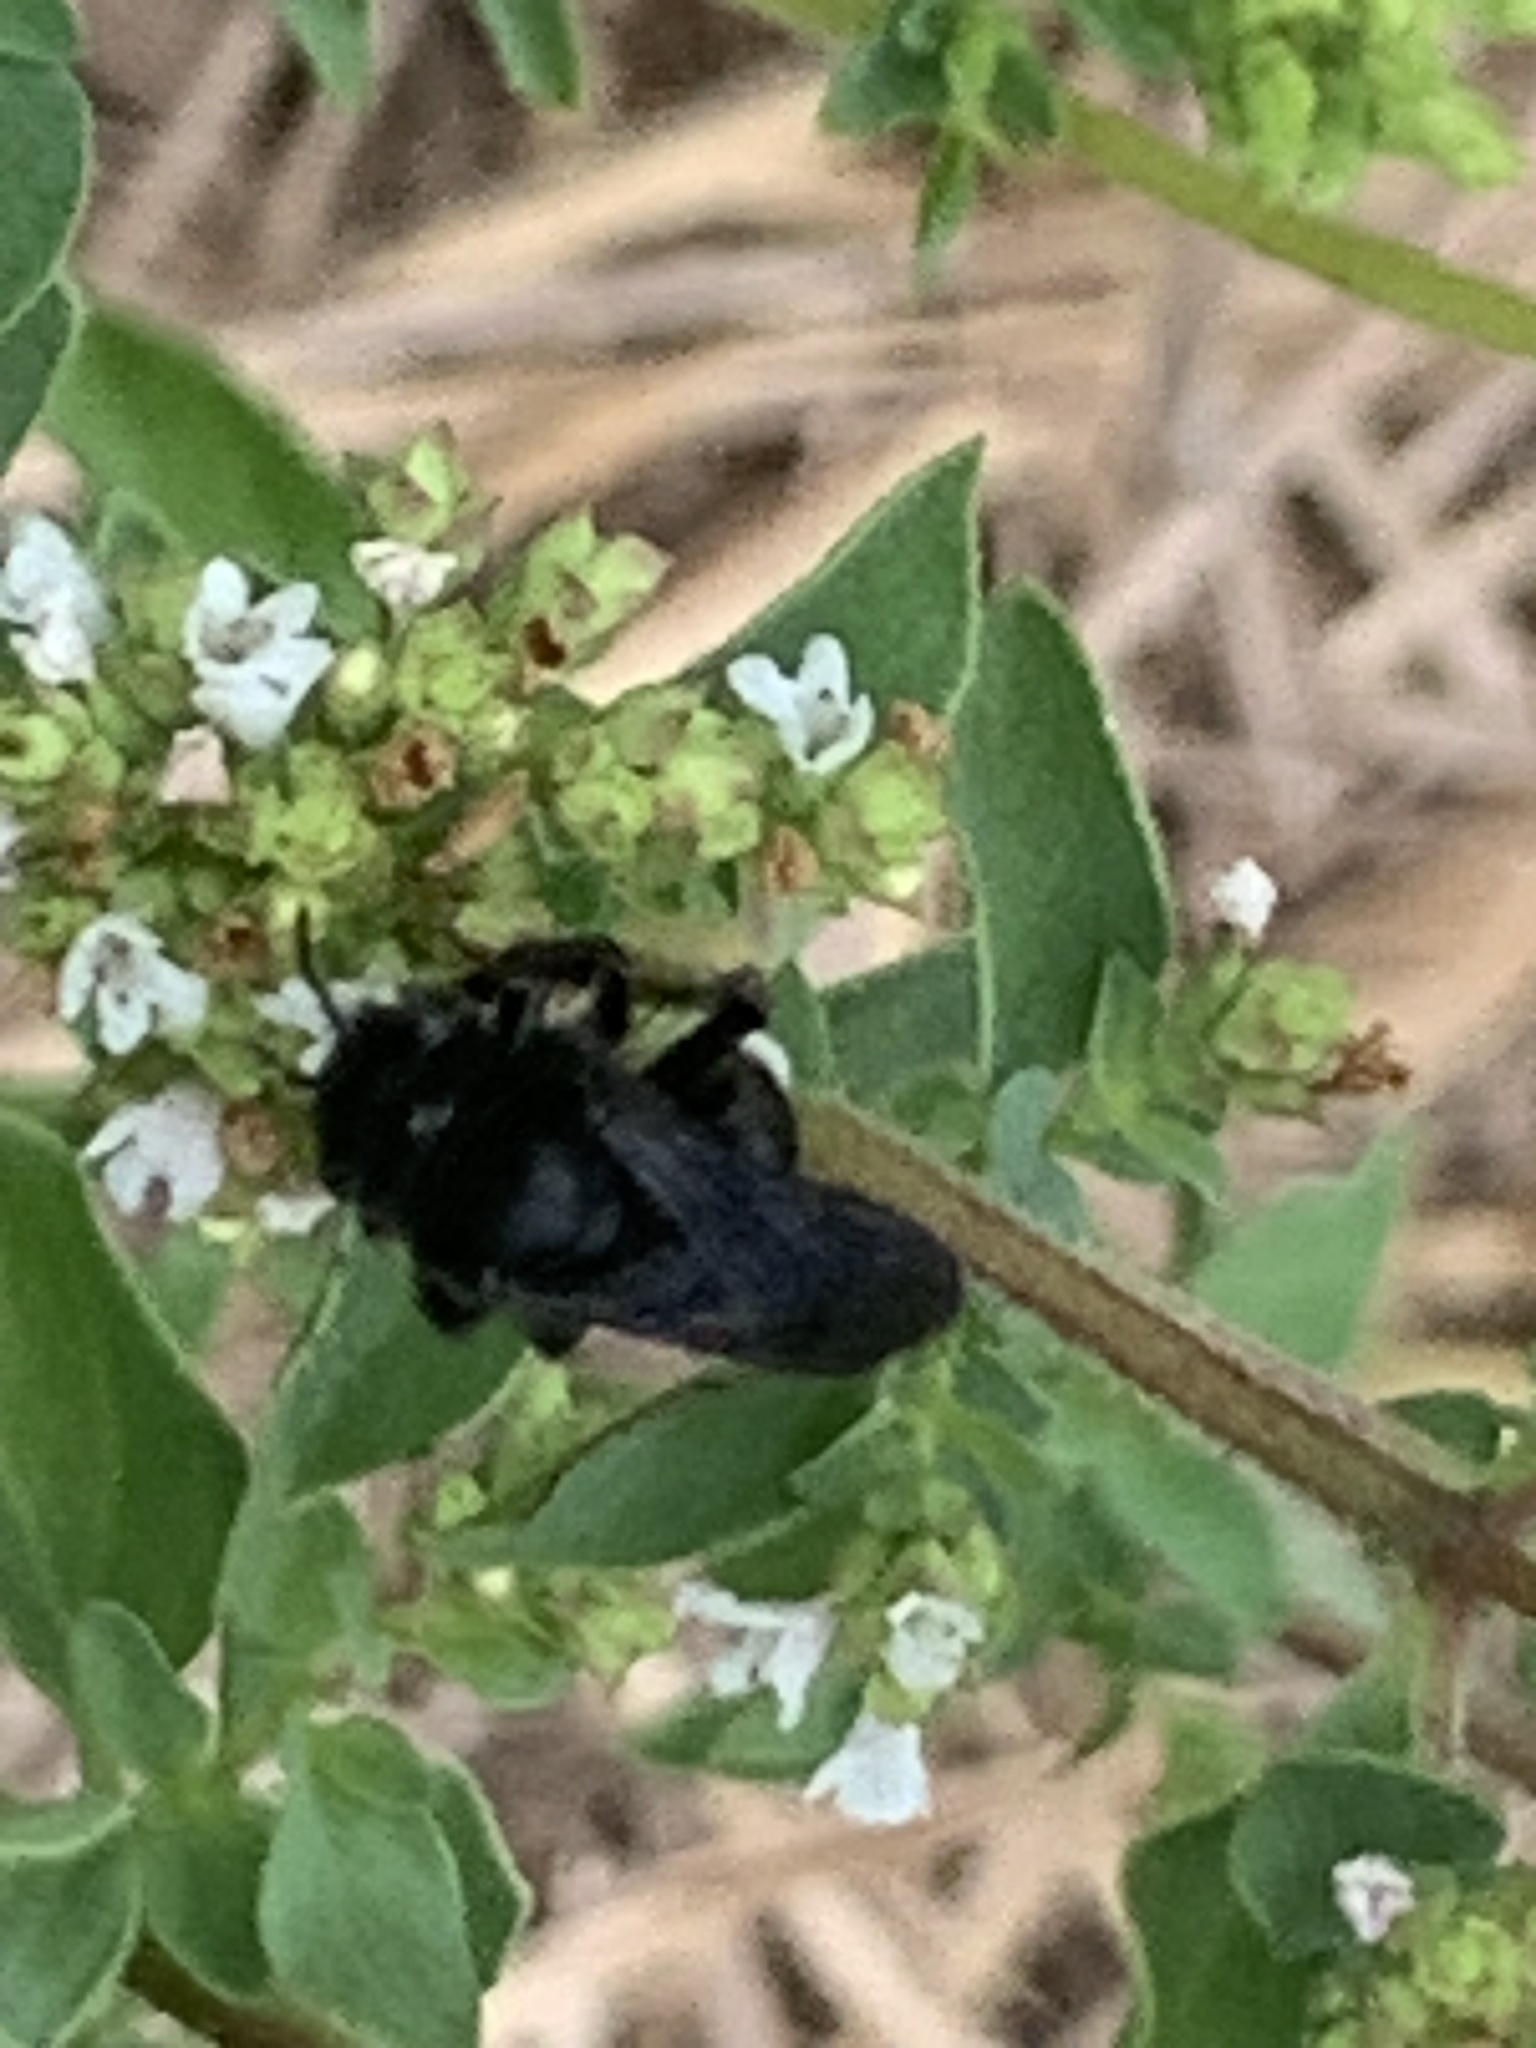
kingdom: Animalia
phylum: Arthropoda
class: Insecta
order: Hymenoptera
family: Apidae
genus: Melissodes
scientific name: Melissodes bimaculatus
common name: Two-spotted long-horned bee
